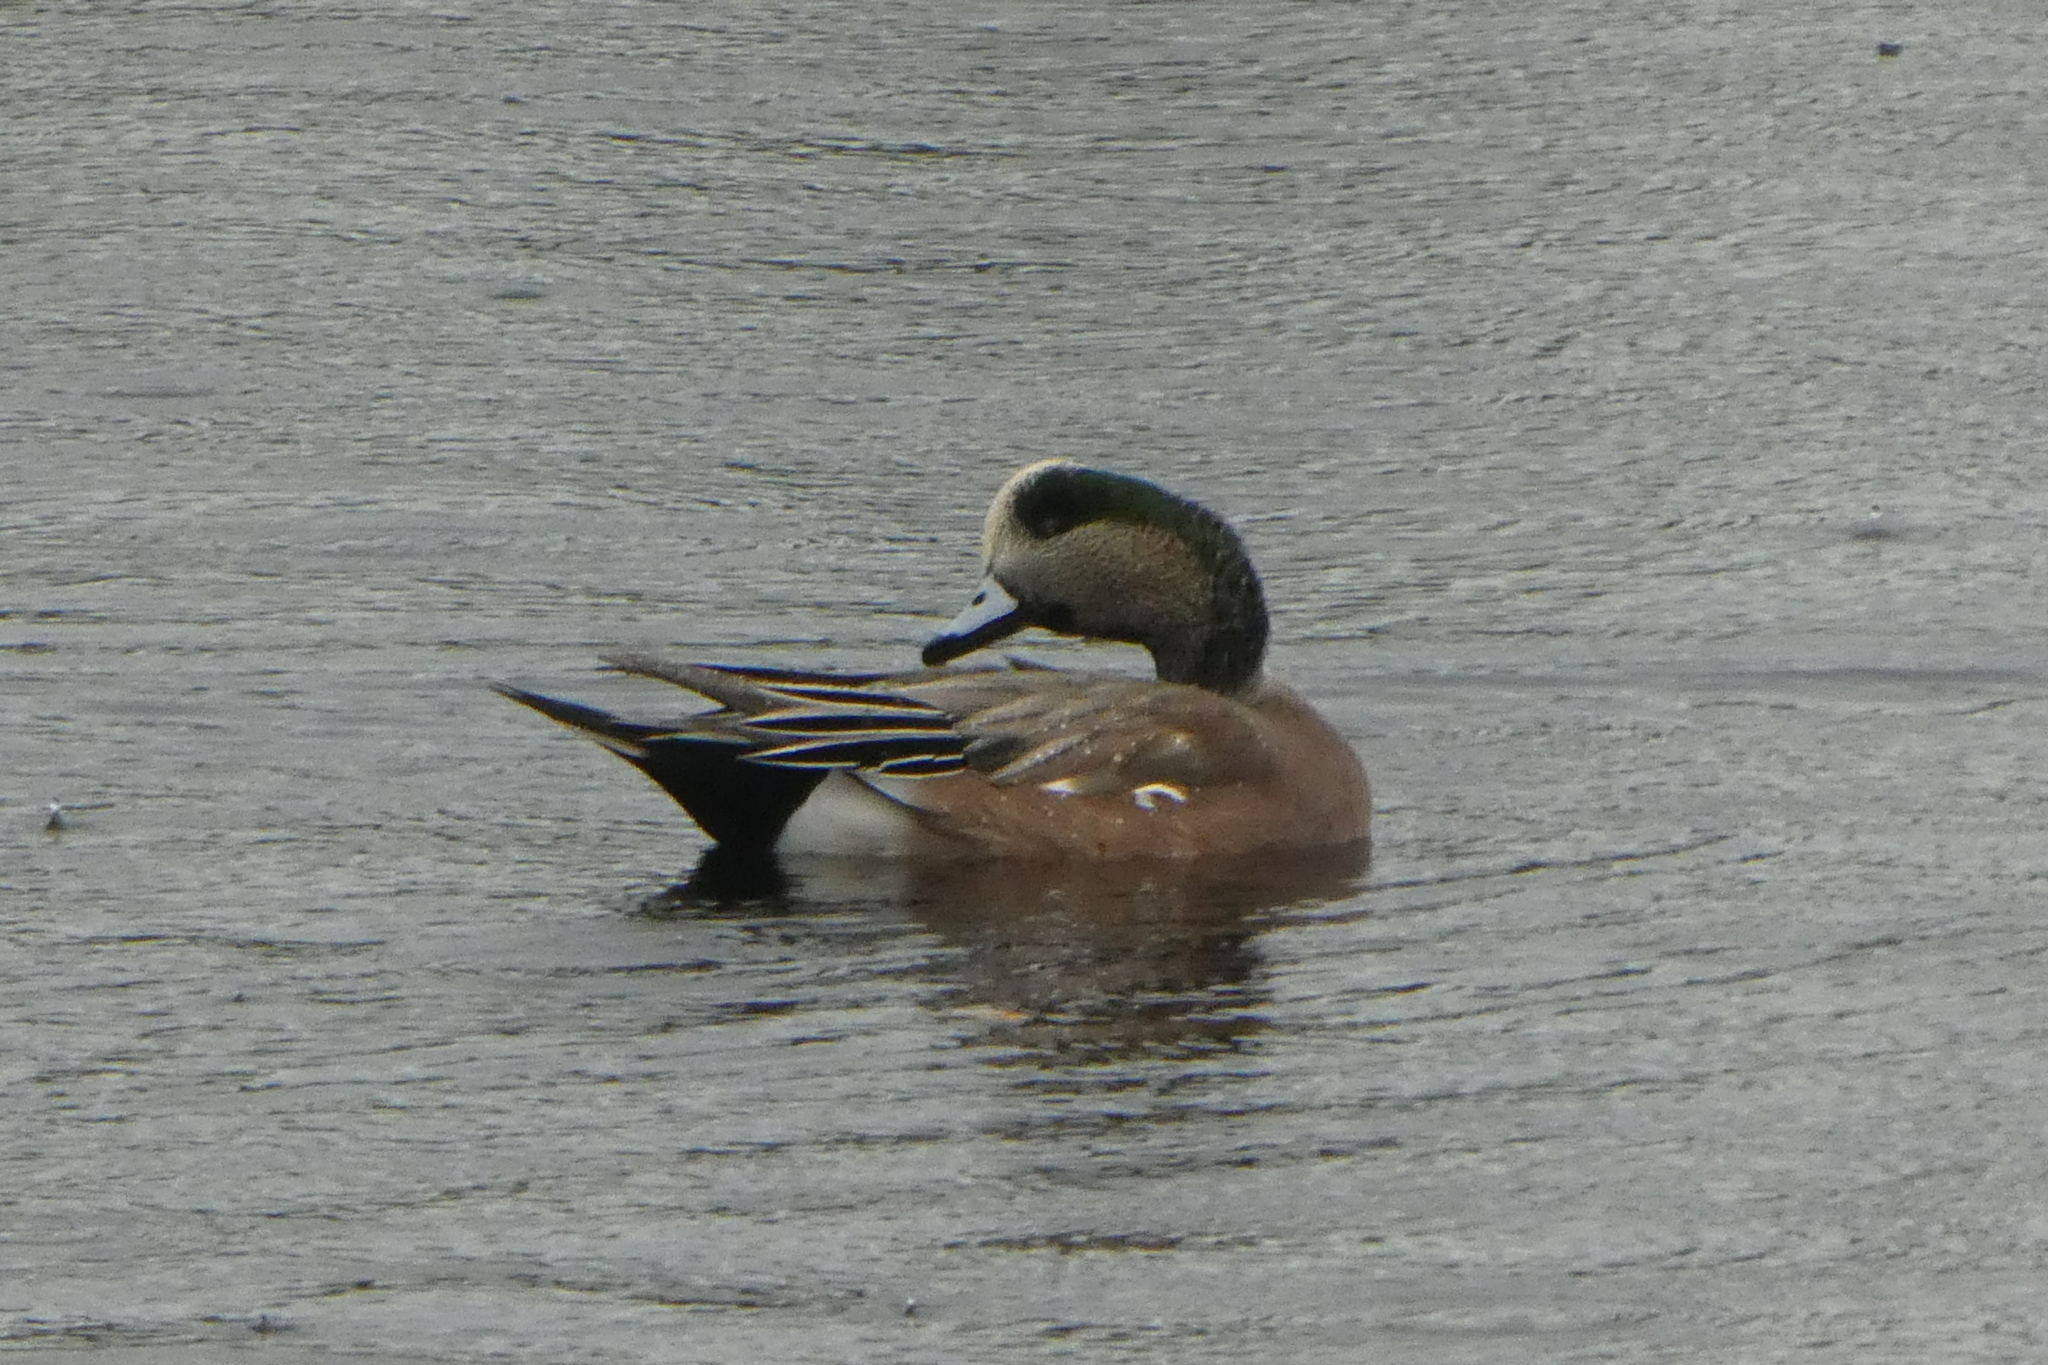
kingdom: Animalia
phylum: Chordata
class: Aves
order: Anseriformes
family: Anatidae
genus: Mareca
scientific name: Mareca americana
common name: American wigeon
